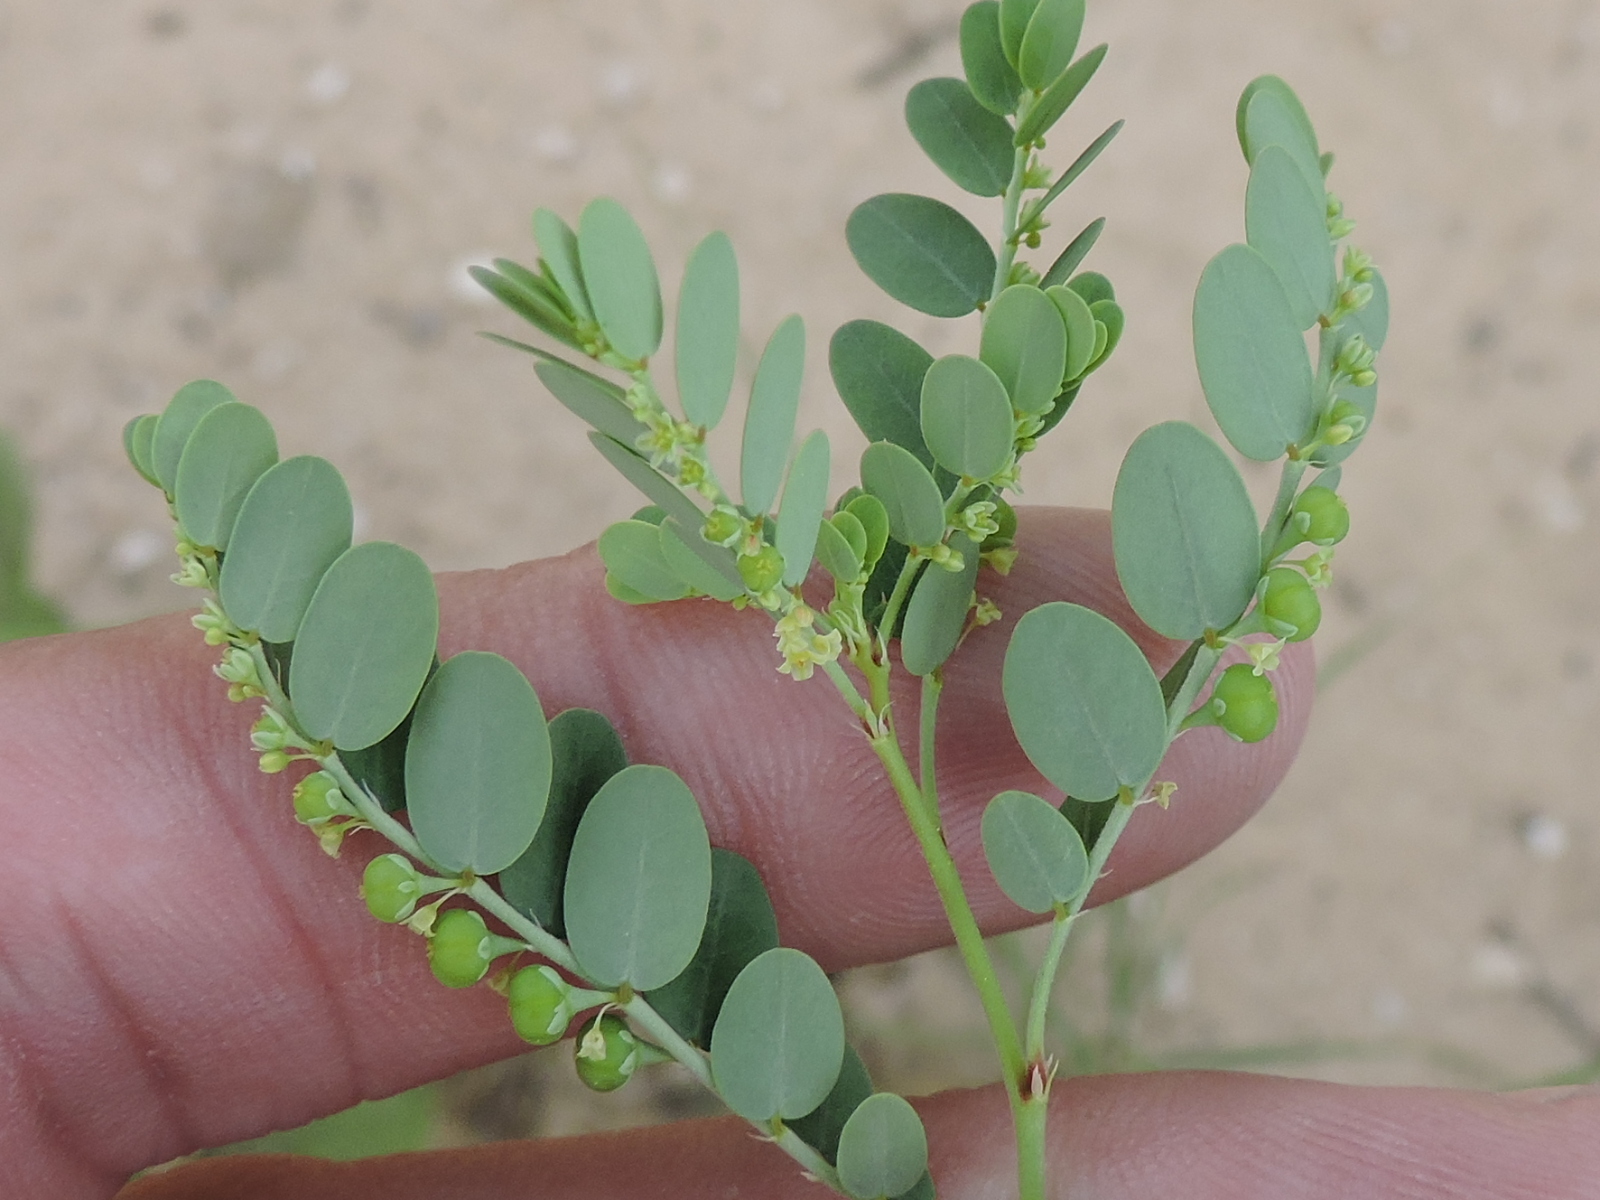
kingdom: Plantae
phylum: Tracheophyta
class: Magnoliopsida
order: Malpighiales
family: Phyllanthaceae
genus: Phyllanthus
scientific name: Phyllanthus abnormis
